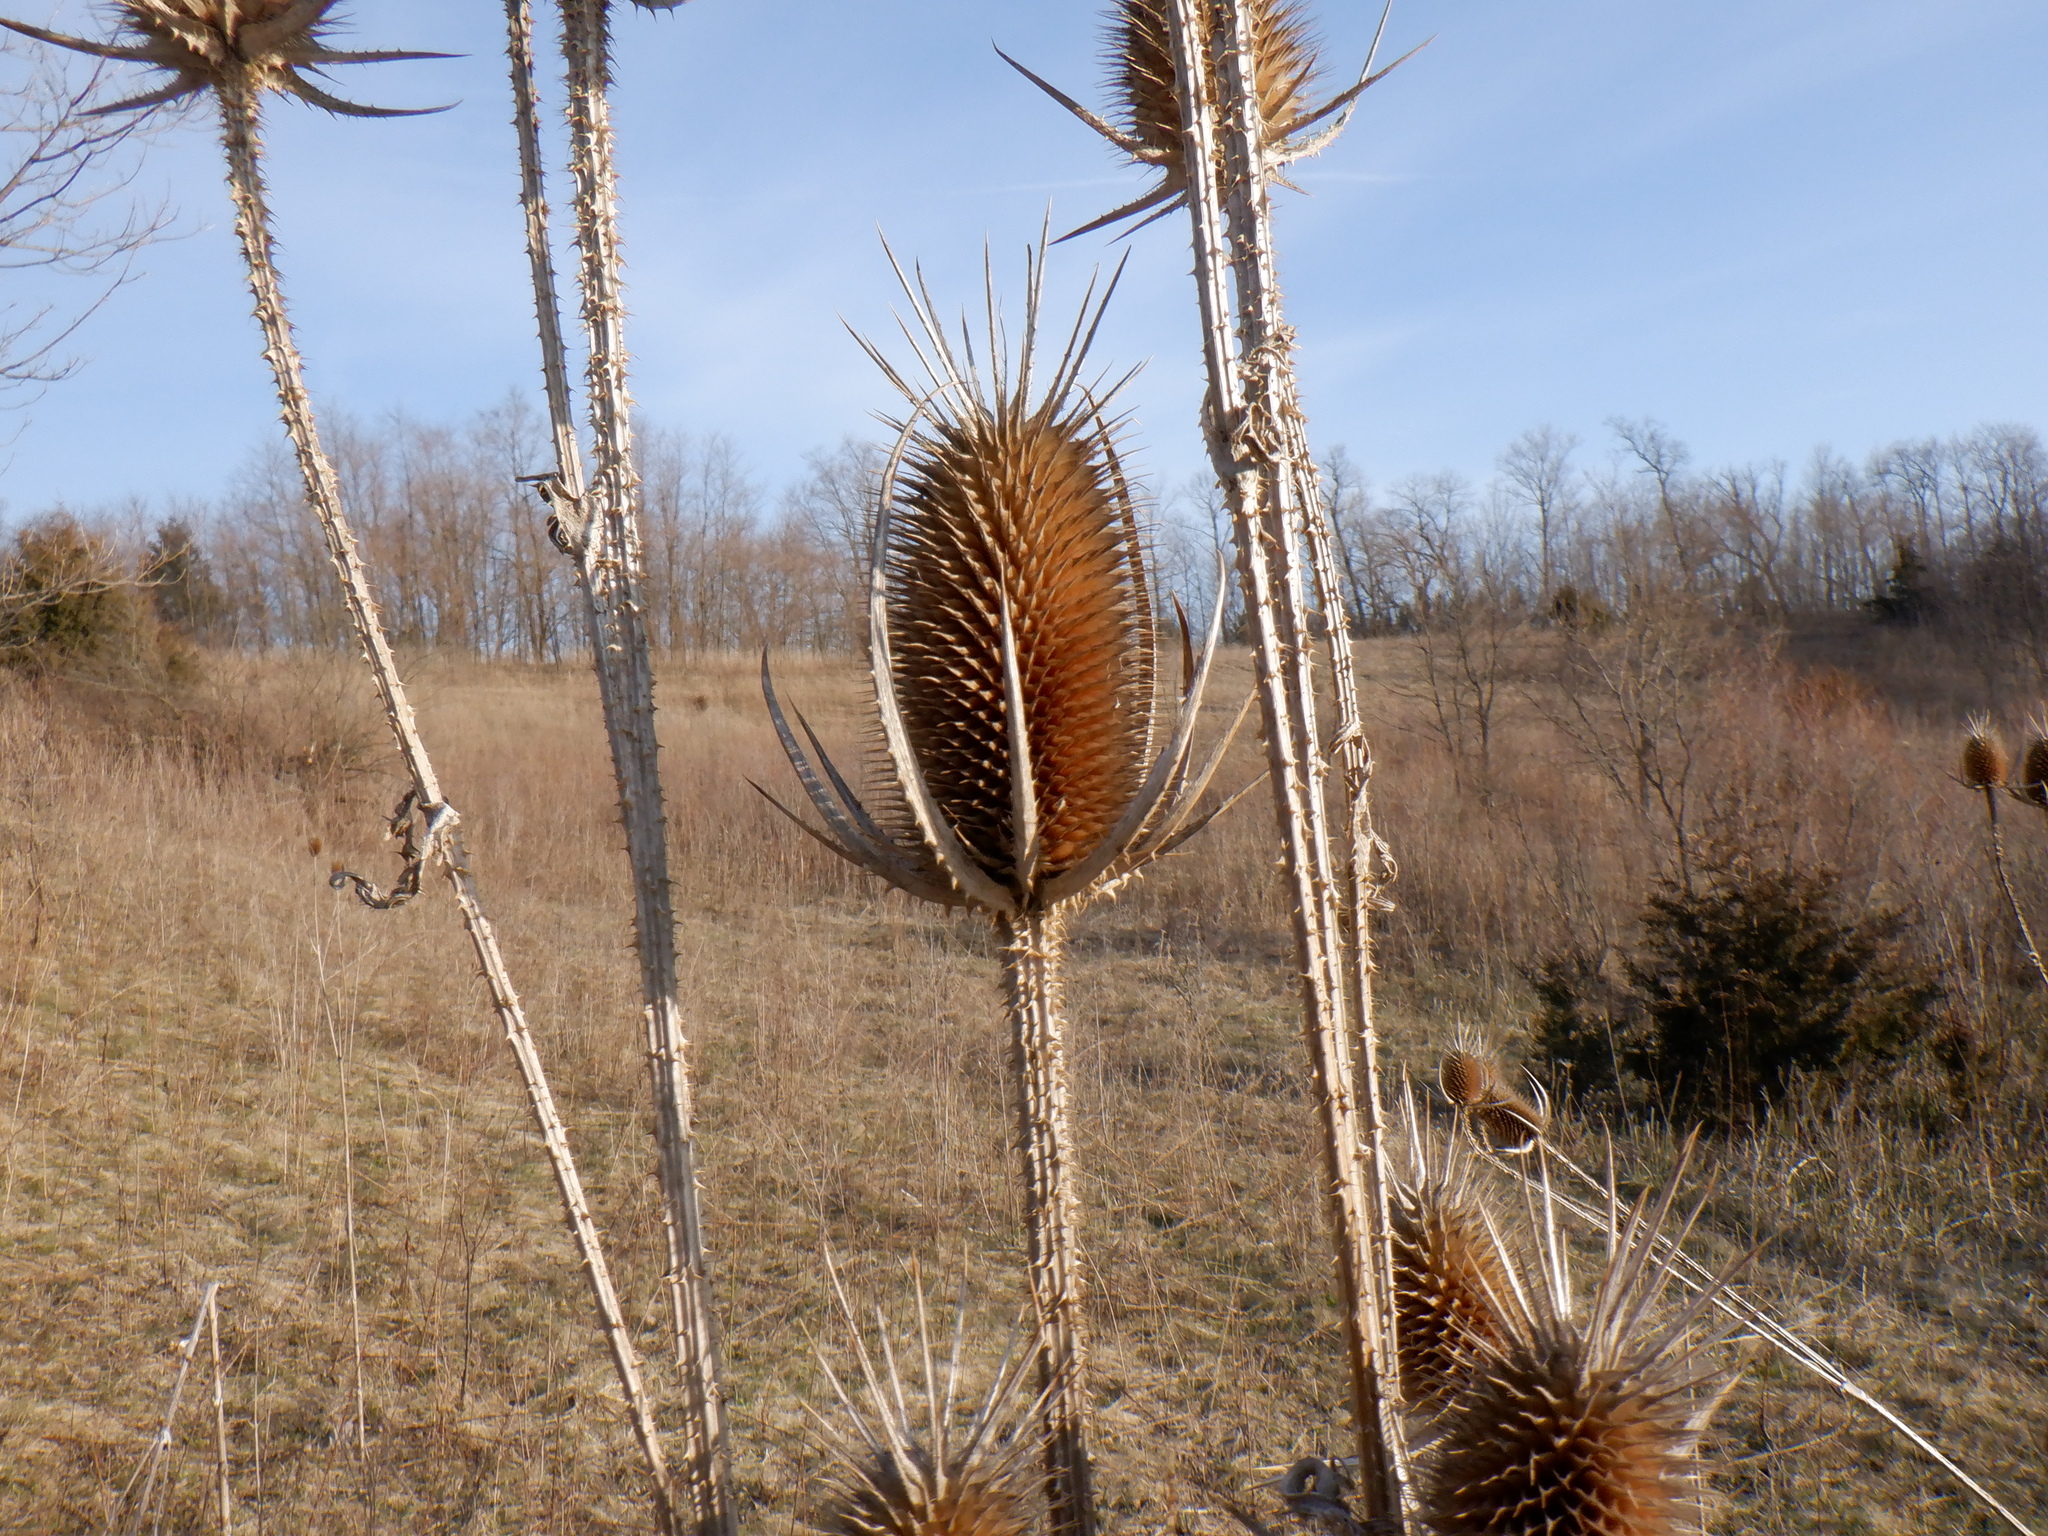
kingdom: Plantae
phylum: Tracheophyta
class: Magnoliopsida
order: Dipsacales
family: Caprifoliaceae
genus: Dipsacus
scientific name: Dipsacus laciniatus
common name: Cut-leaved teasel
